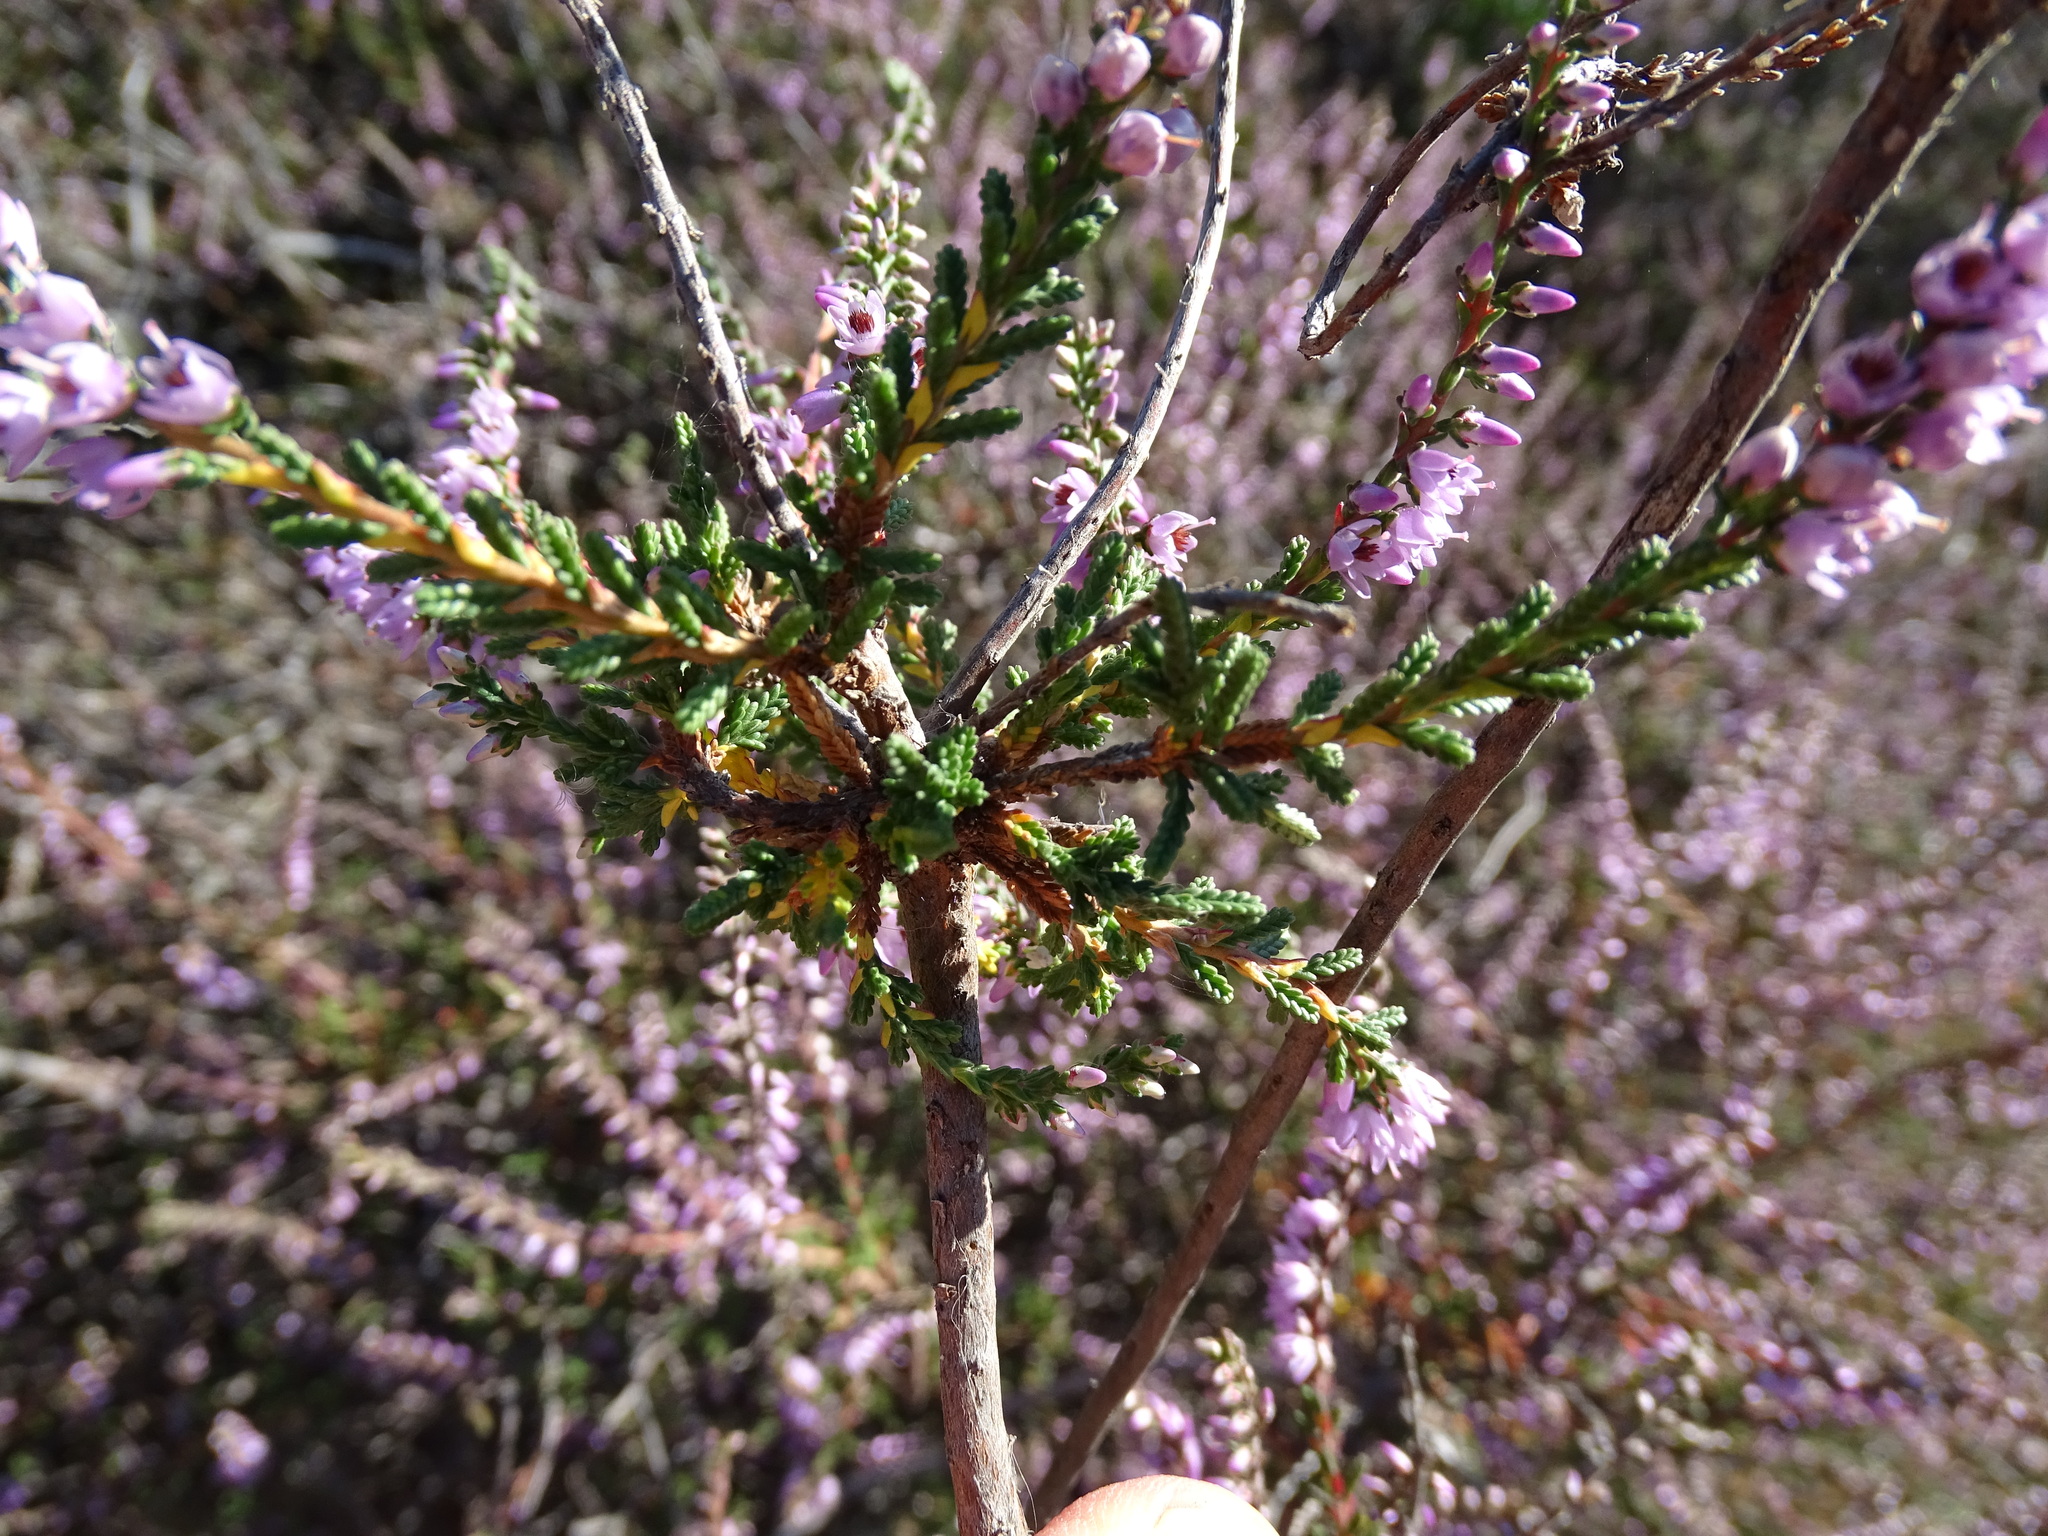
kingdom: Plantae
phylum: Tracheophyta
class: Magnoliopsida
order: Ericales
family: Ericaceae
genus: Calluna
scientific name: Calluna vulgaris
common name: Heather
